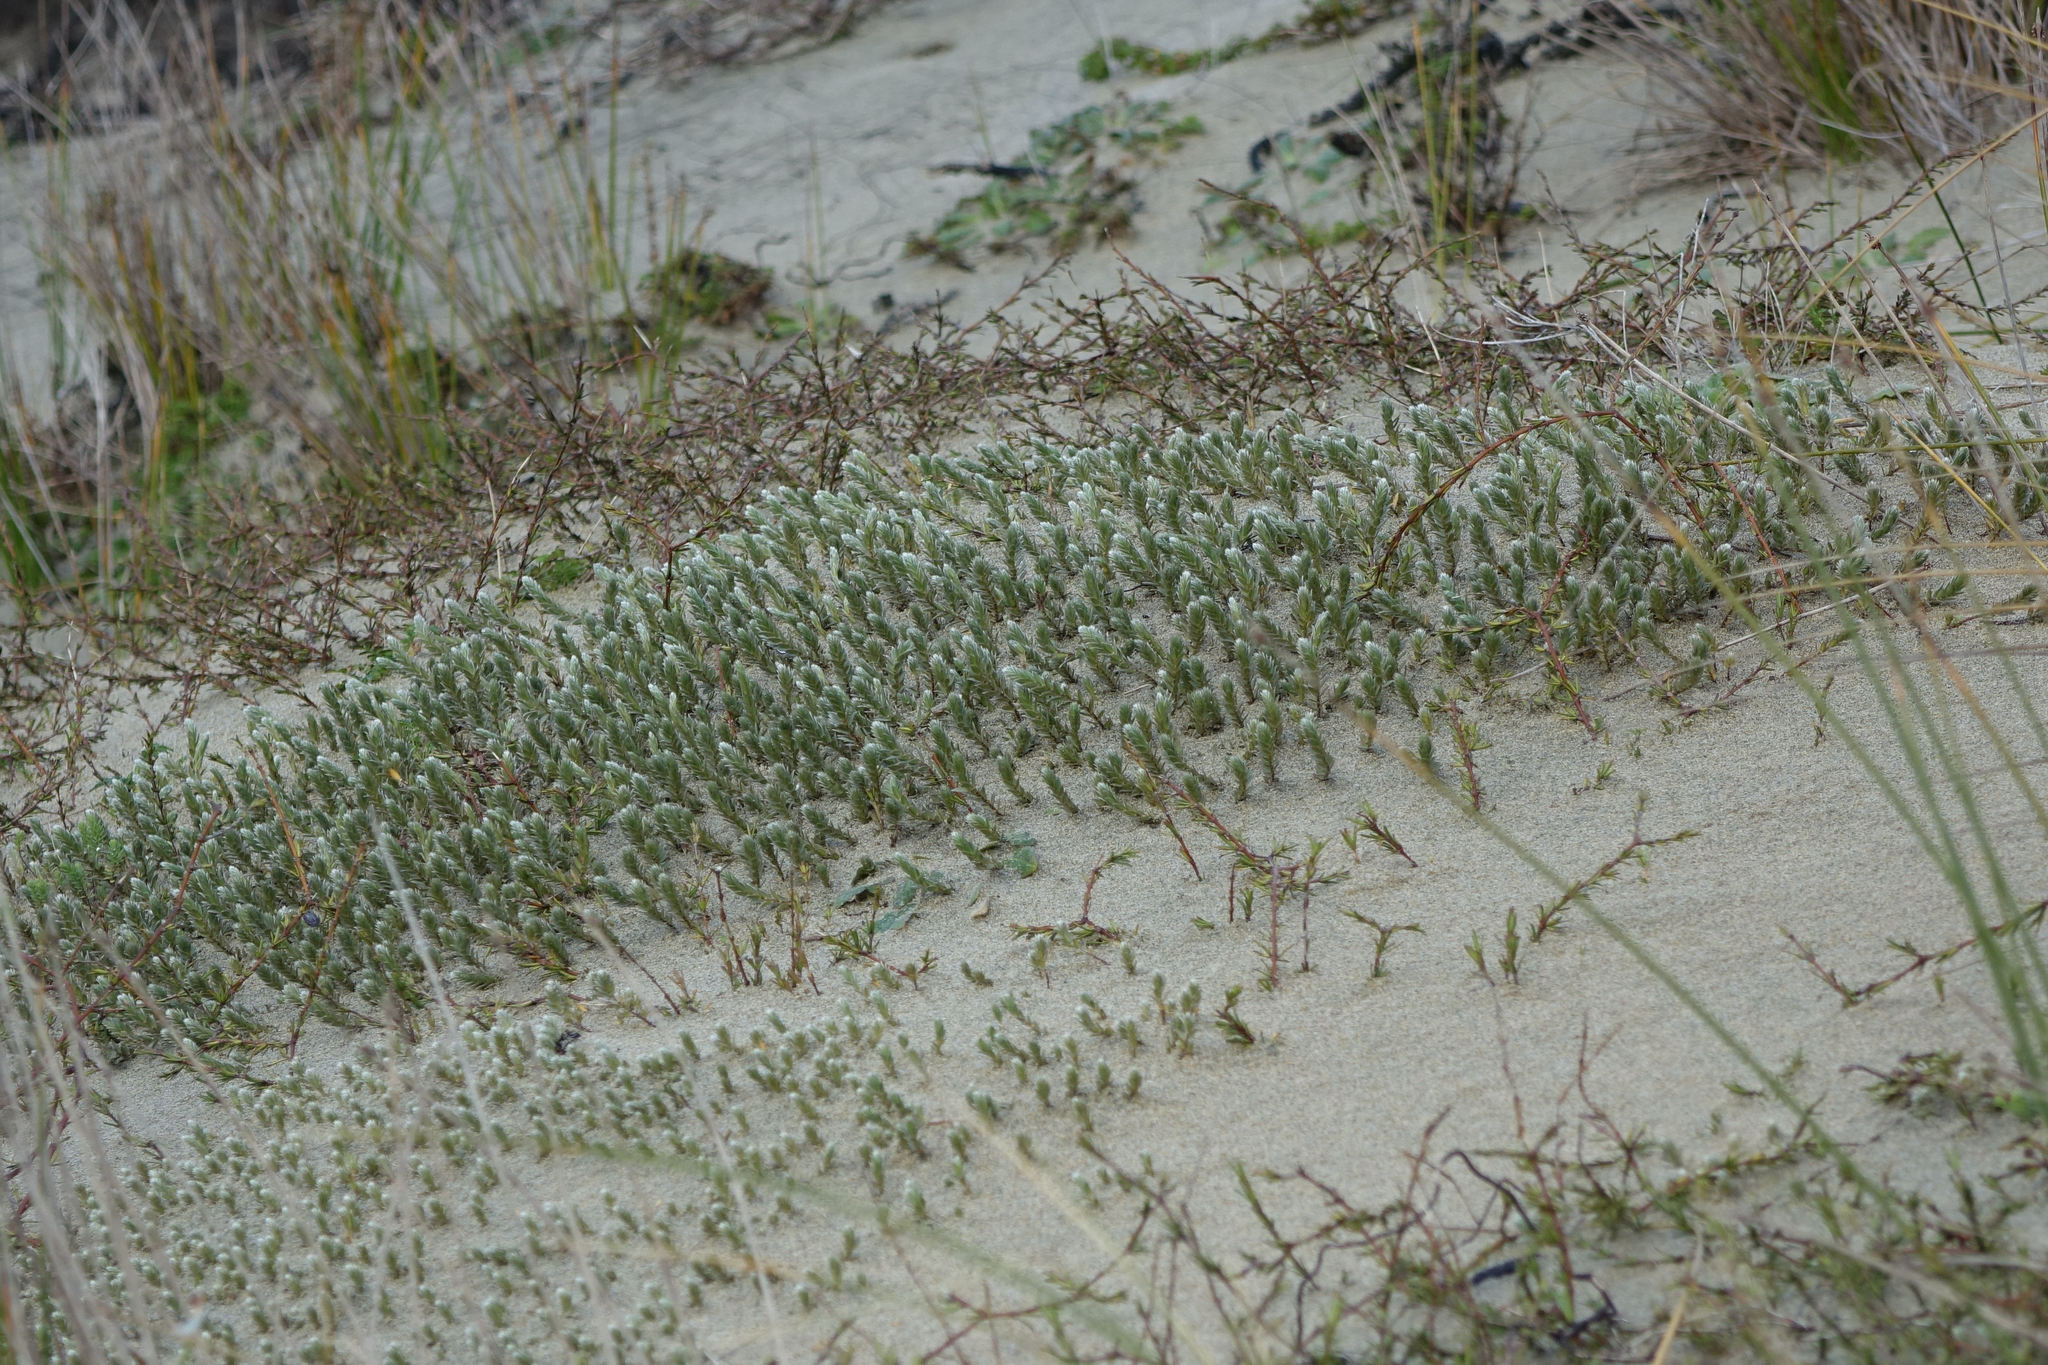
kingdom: Plantae
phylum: Tracheophyta
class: Magnoliopsida
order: Malvales
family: Thymelaeaceae
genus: Pimelea
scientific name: Pimelea lyallii
